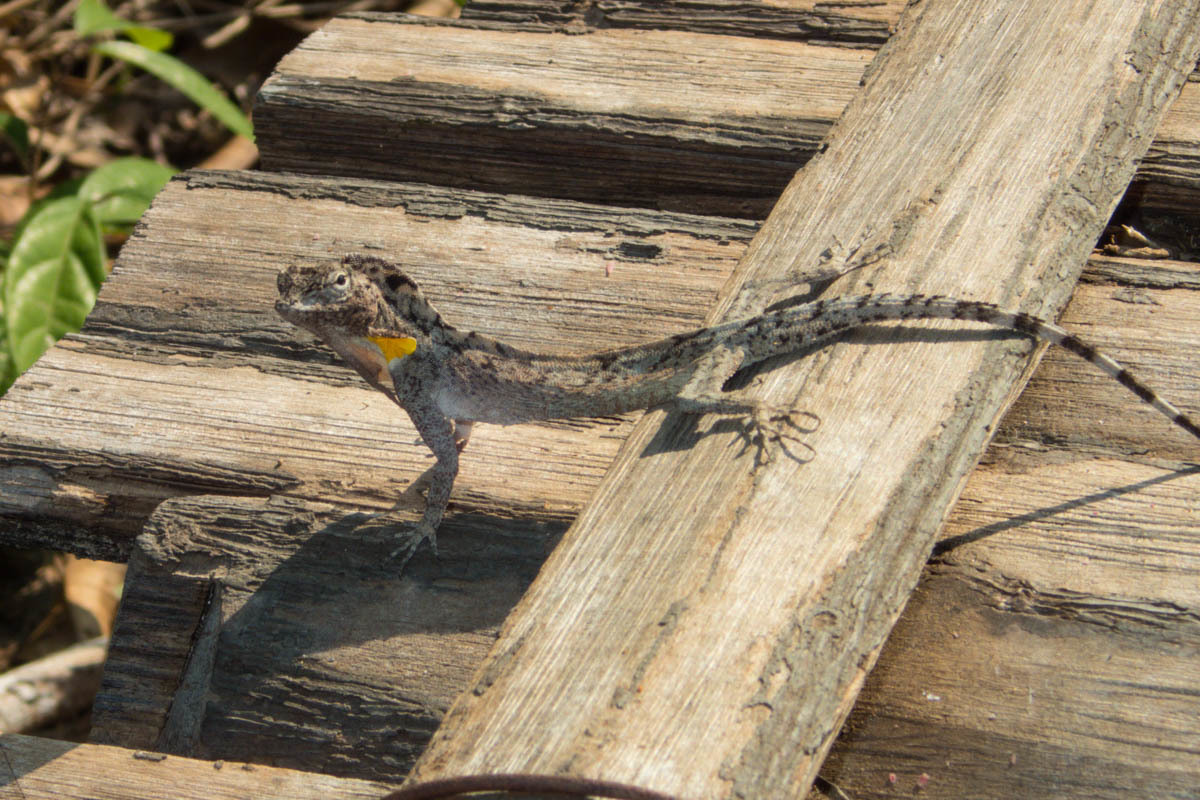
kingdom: Animalia
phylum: Chordata
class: Squamata
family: Agamidae
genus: Draco
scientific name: Draco maculatus
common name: Spotted flying dragon
